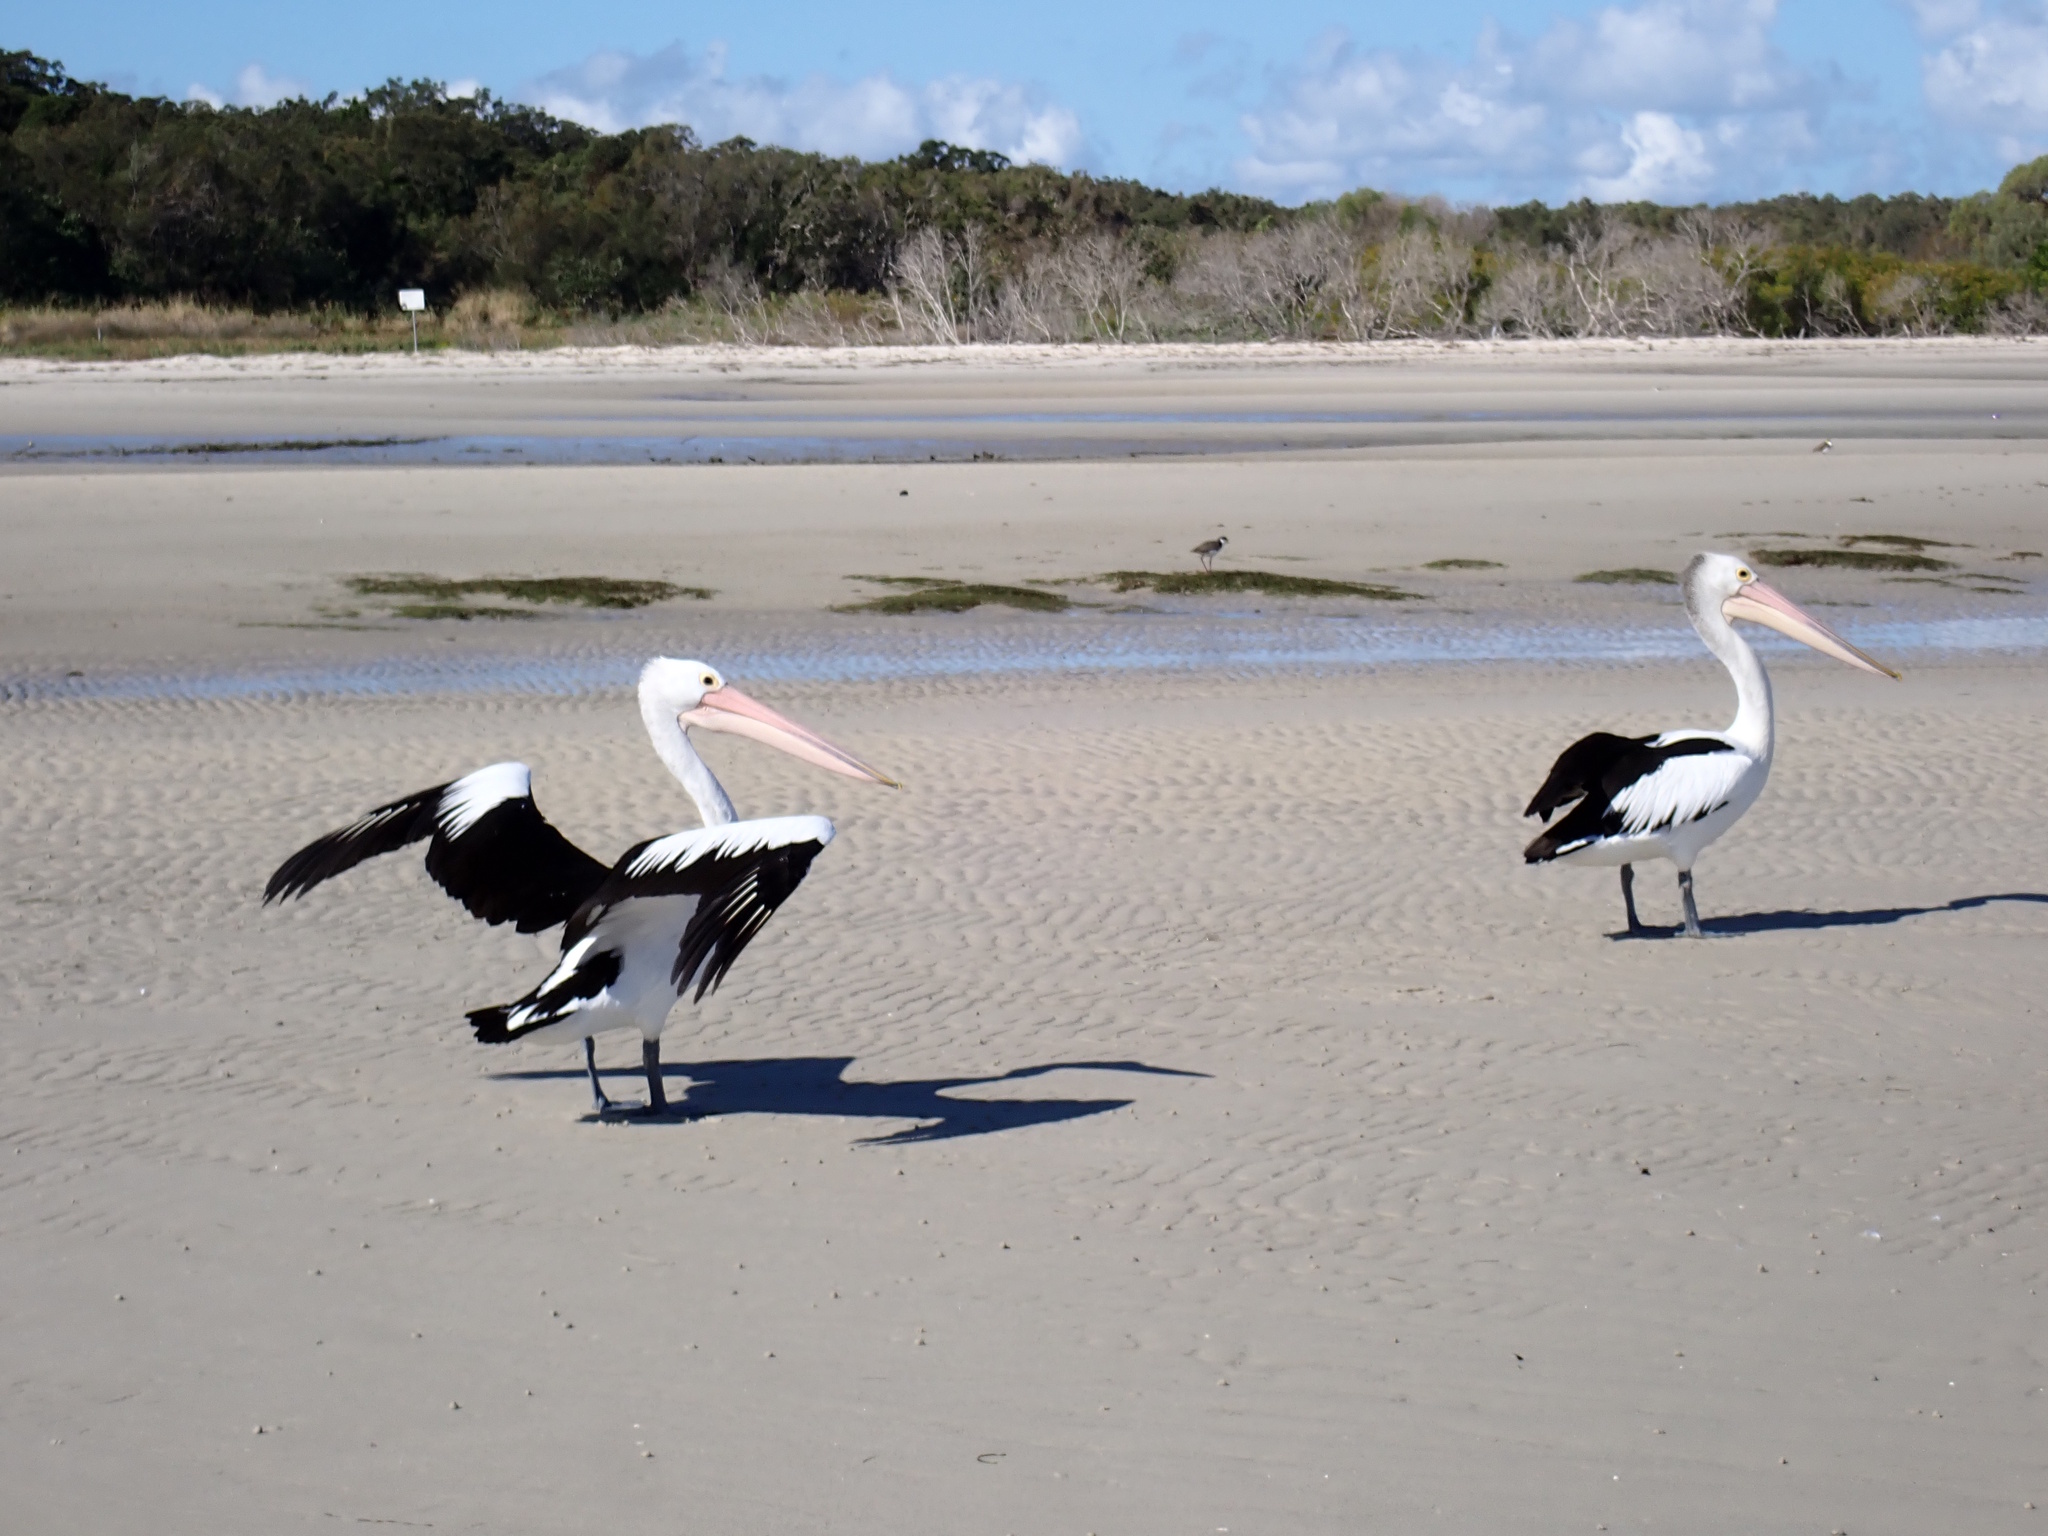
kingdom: Animalia
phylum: Chordata
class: Aves
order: Pelecaniformes
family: Pelecanidae
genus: Pelecanus
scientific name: Pelecanus conspicillatus
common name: Australian pelican
